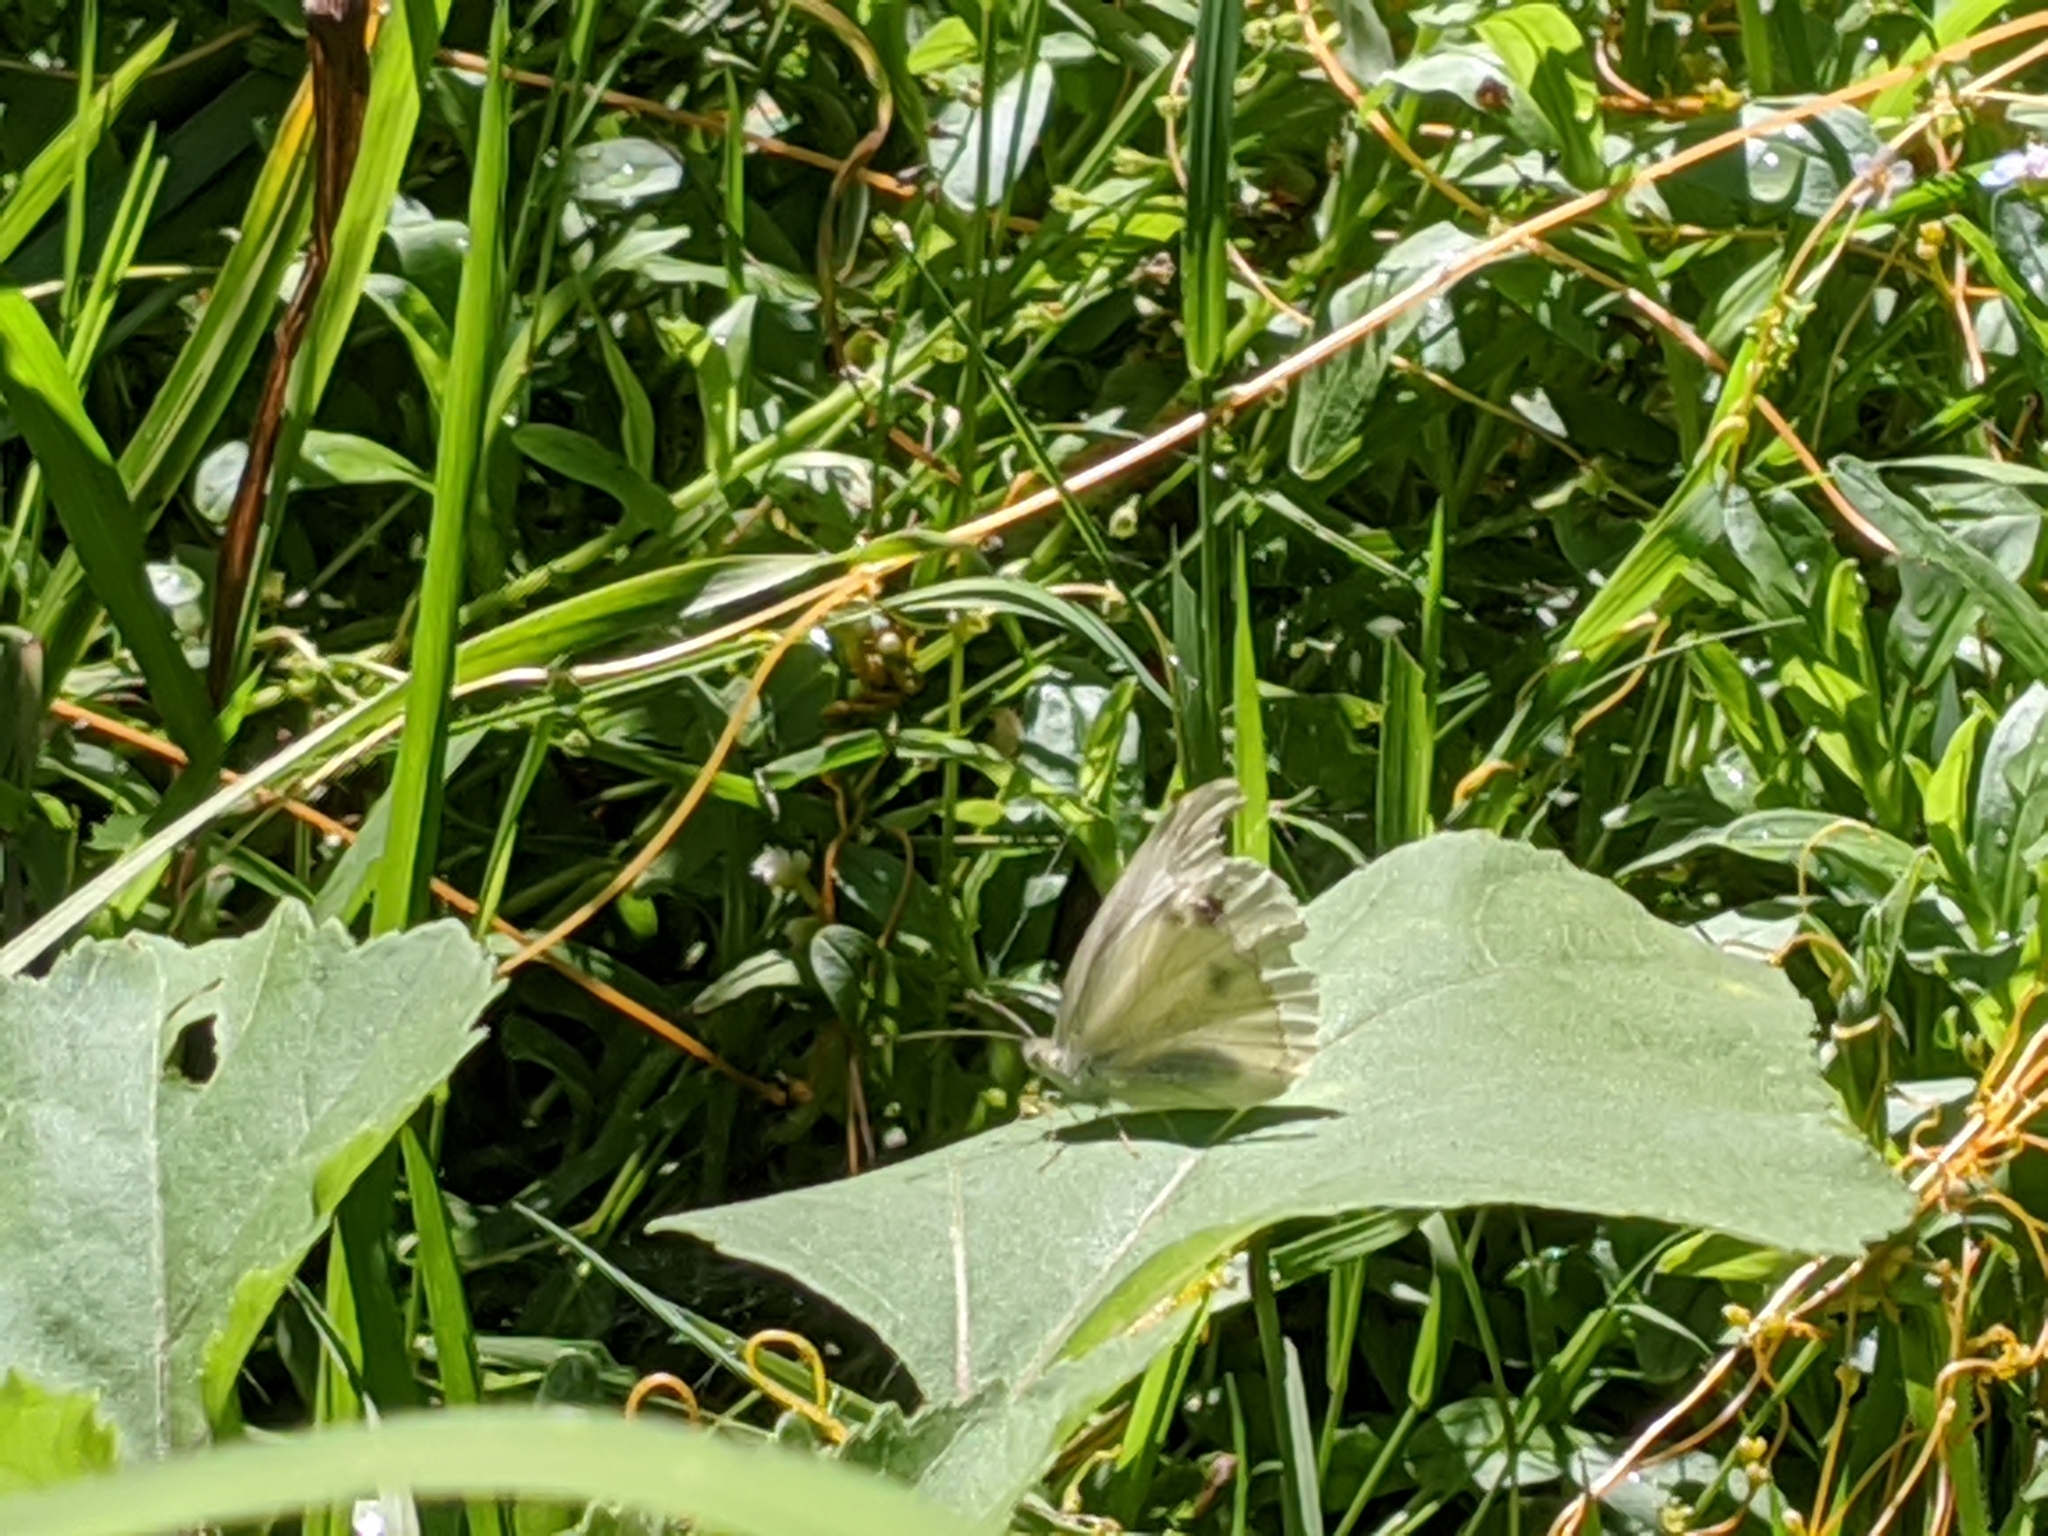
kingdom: Animalia
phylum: Arthropoda
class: Insecta
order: Lepidoptera
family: Pieridae
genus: Pieris
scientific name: Pieris rapae
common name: Small white
